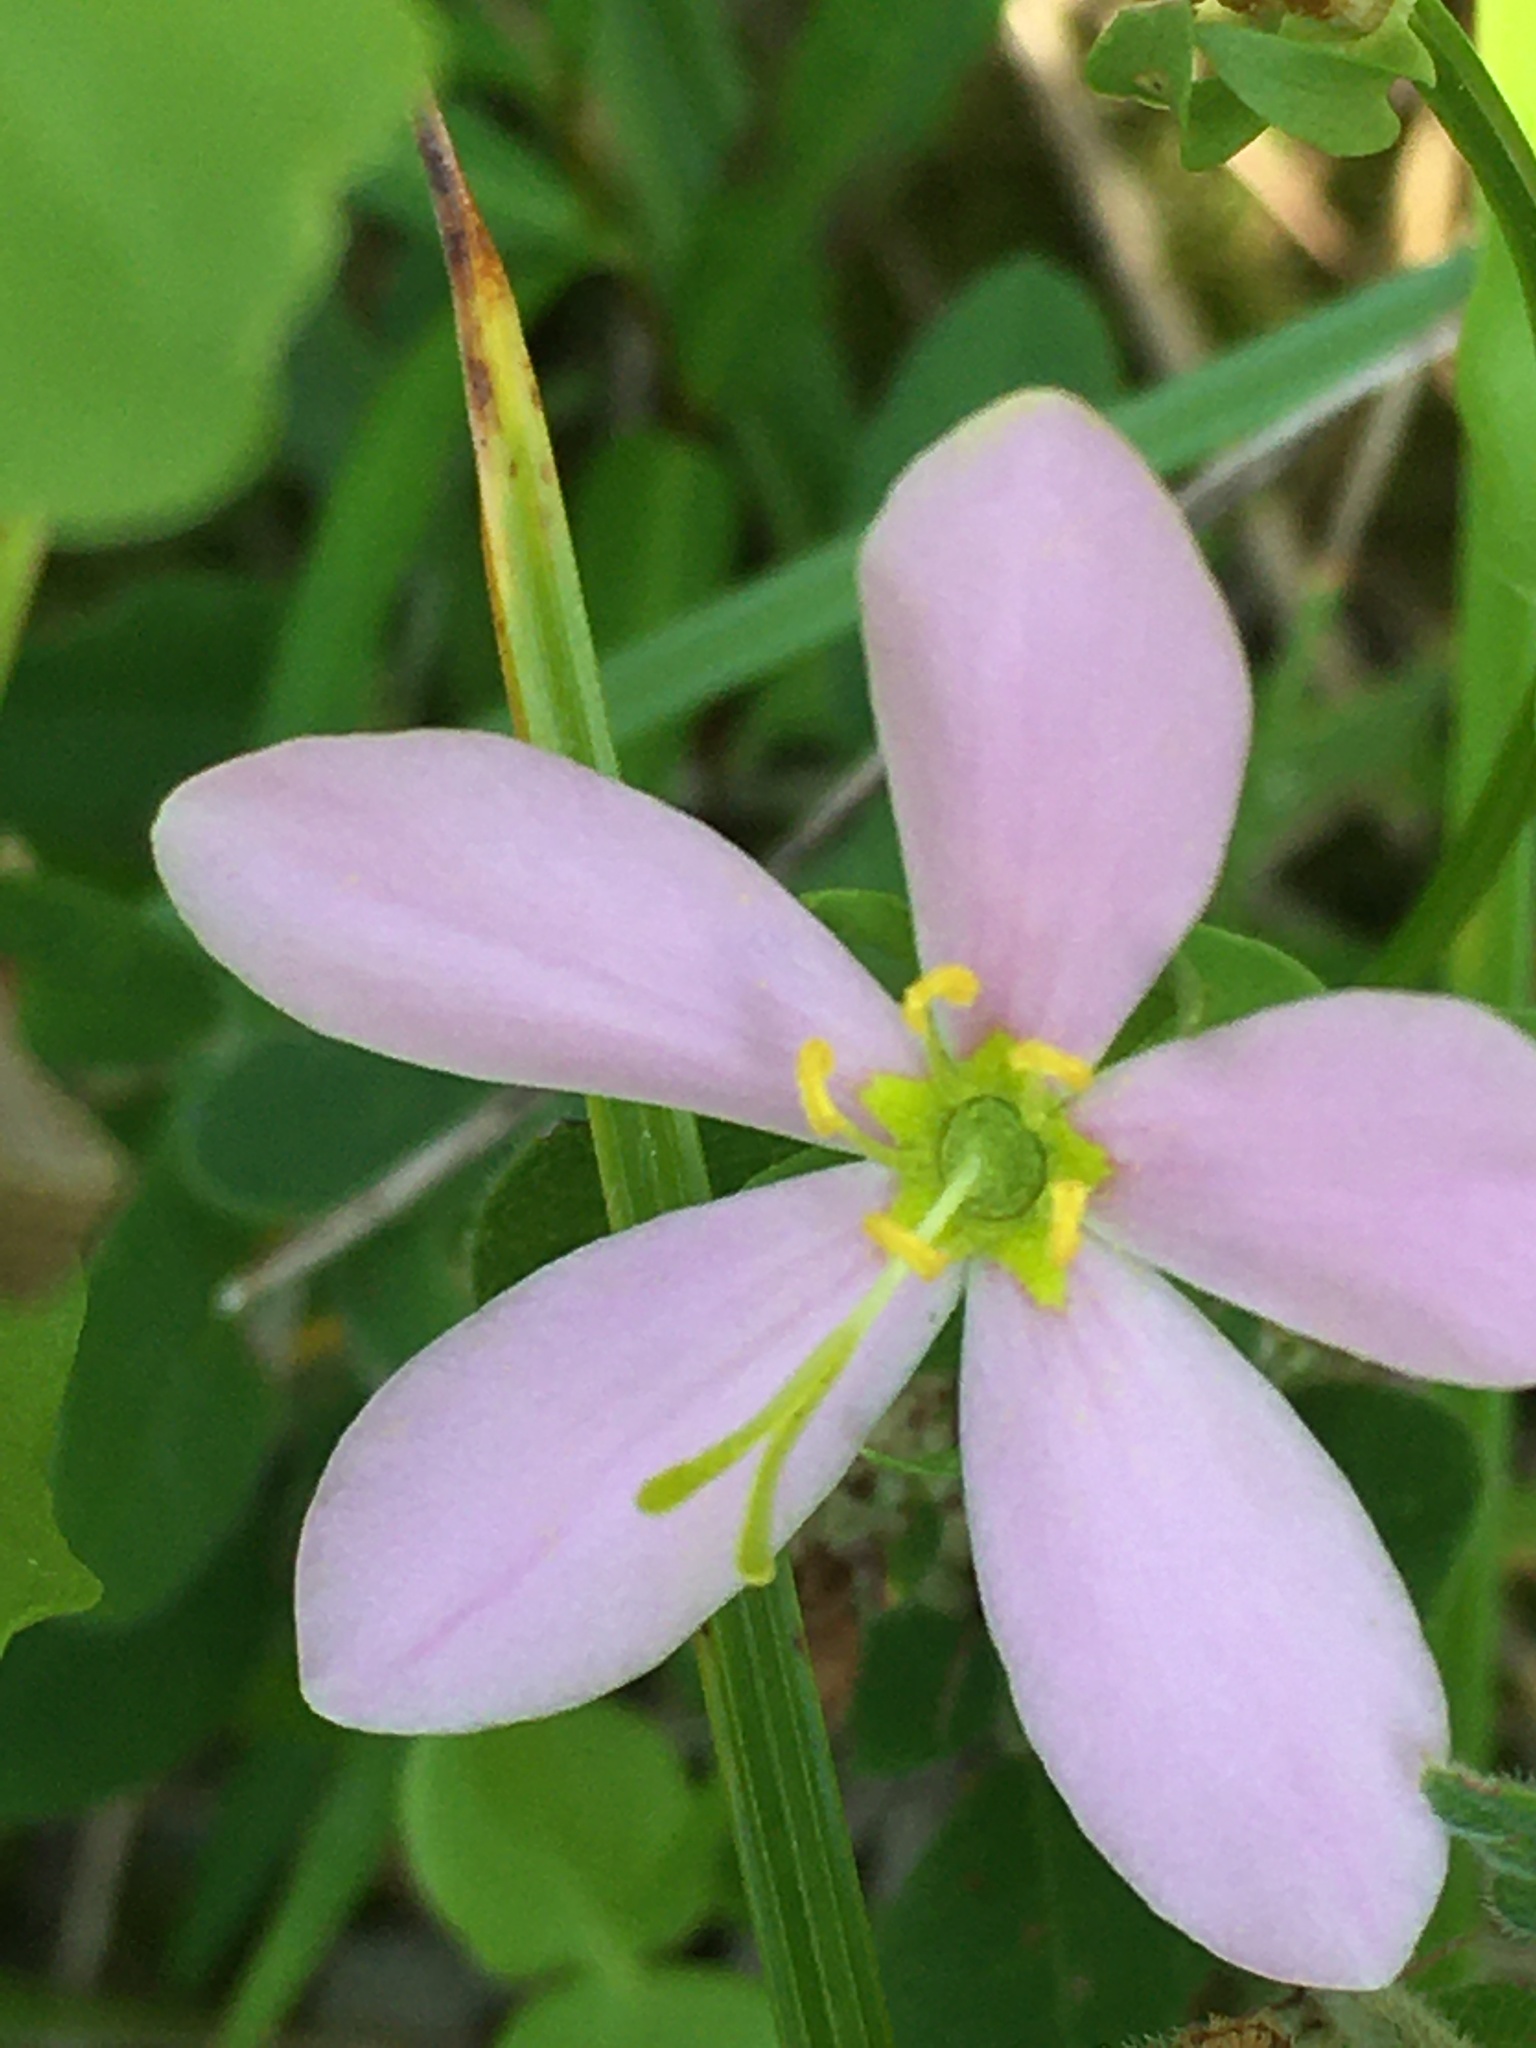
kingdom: Plantae
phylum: Tracheophyta
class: Magnoliopsida
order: Gentianales
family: Gentianaceae
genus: Sabatia
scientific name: Sabatia angularis
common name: Rose-pink
